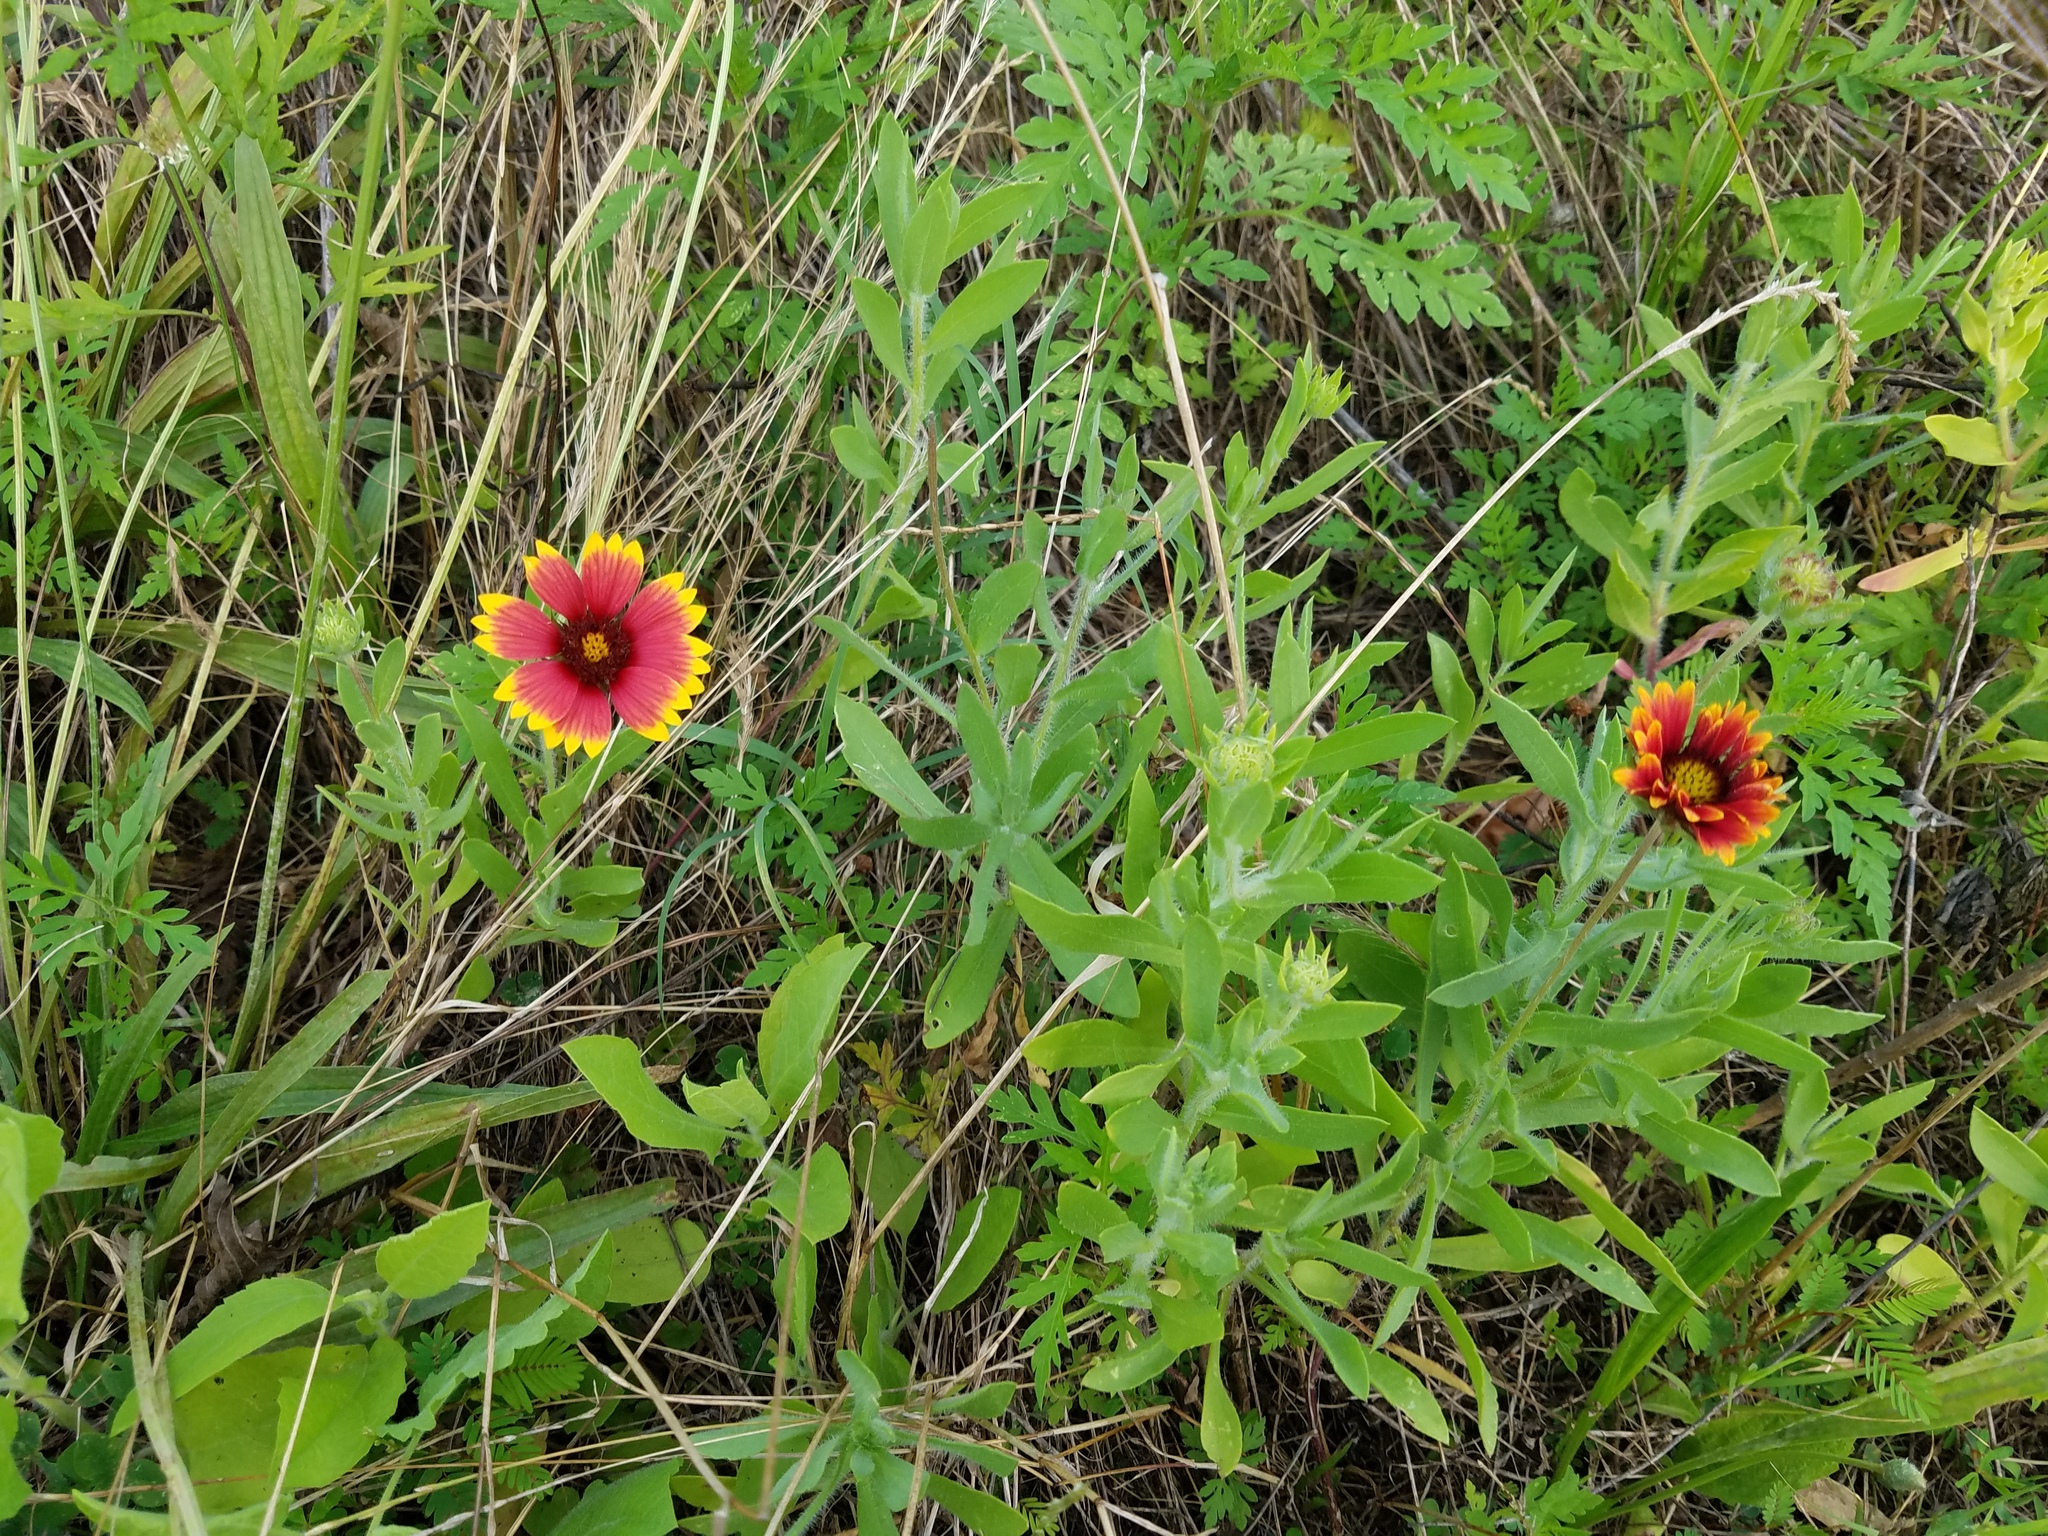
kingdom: Plantae
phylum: Tracheophyta
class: Magnoliopsida
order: Asterales
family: Asteraceae
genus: Gaillardia
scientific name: Gaillardia pulchella
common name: Firewheel
